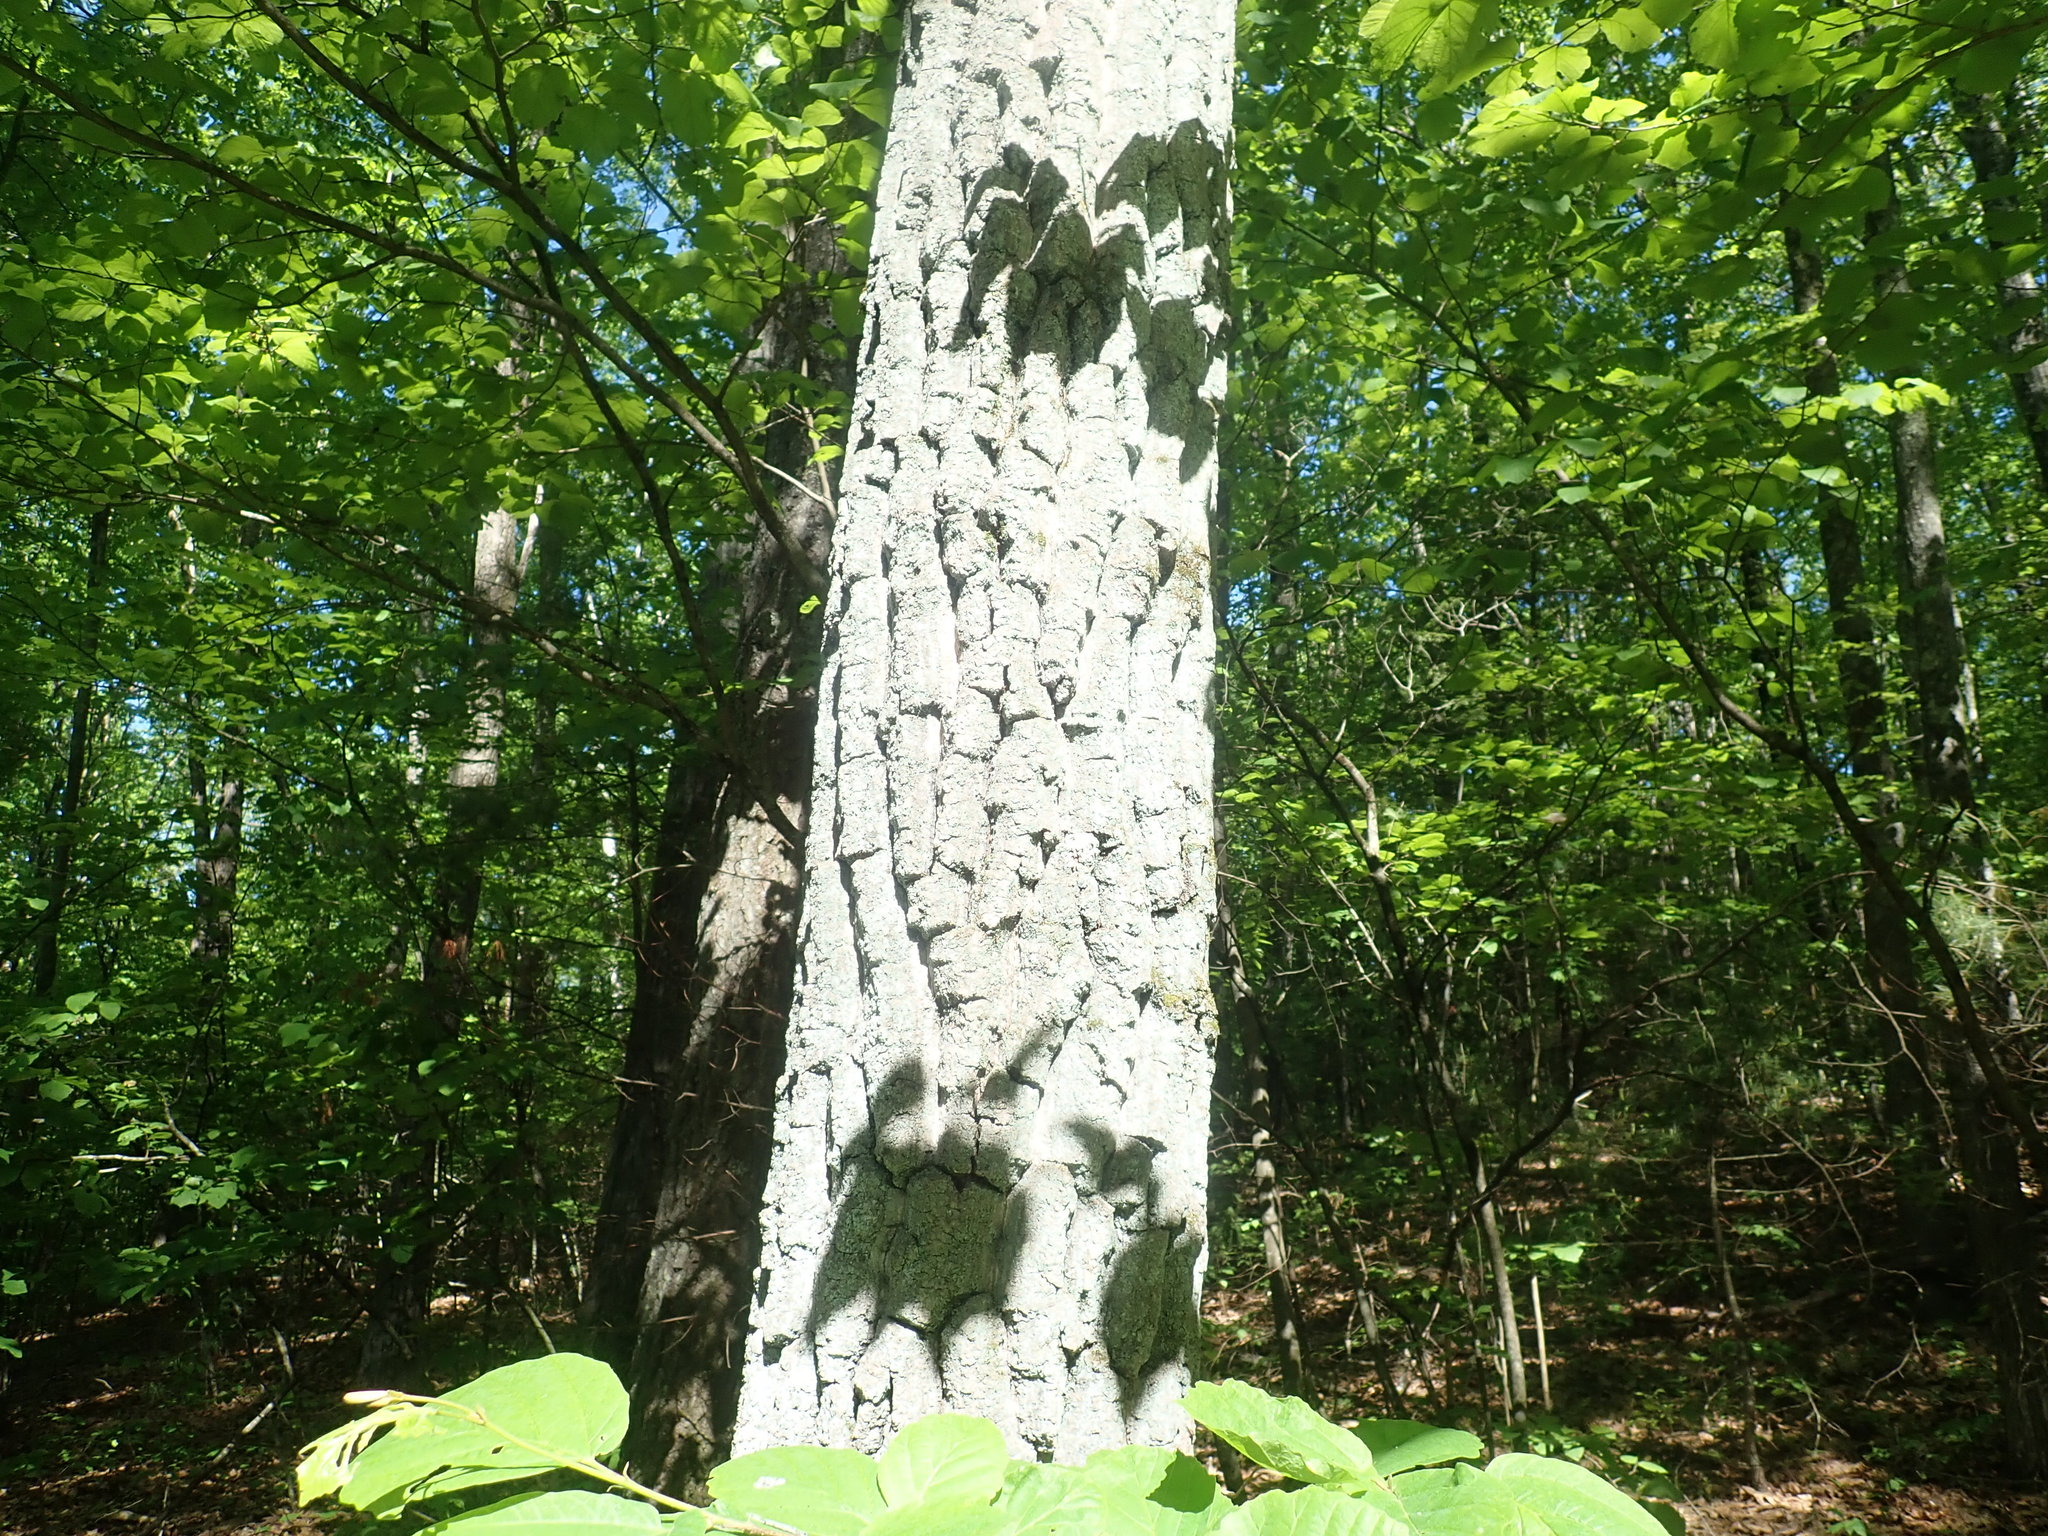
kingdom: Plantae
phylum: Tracheophyta
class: Magnoliopsida
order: Fagales
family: Fagaceae
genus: Quercus
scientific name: Quercus montana
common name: Chestnut oak
